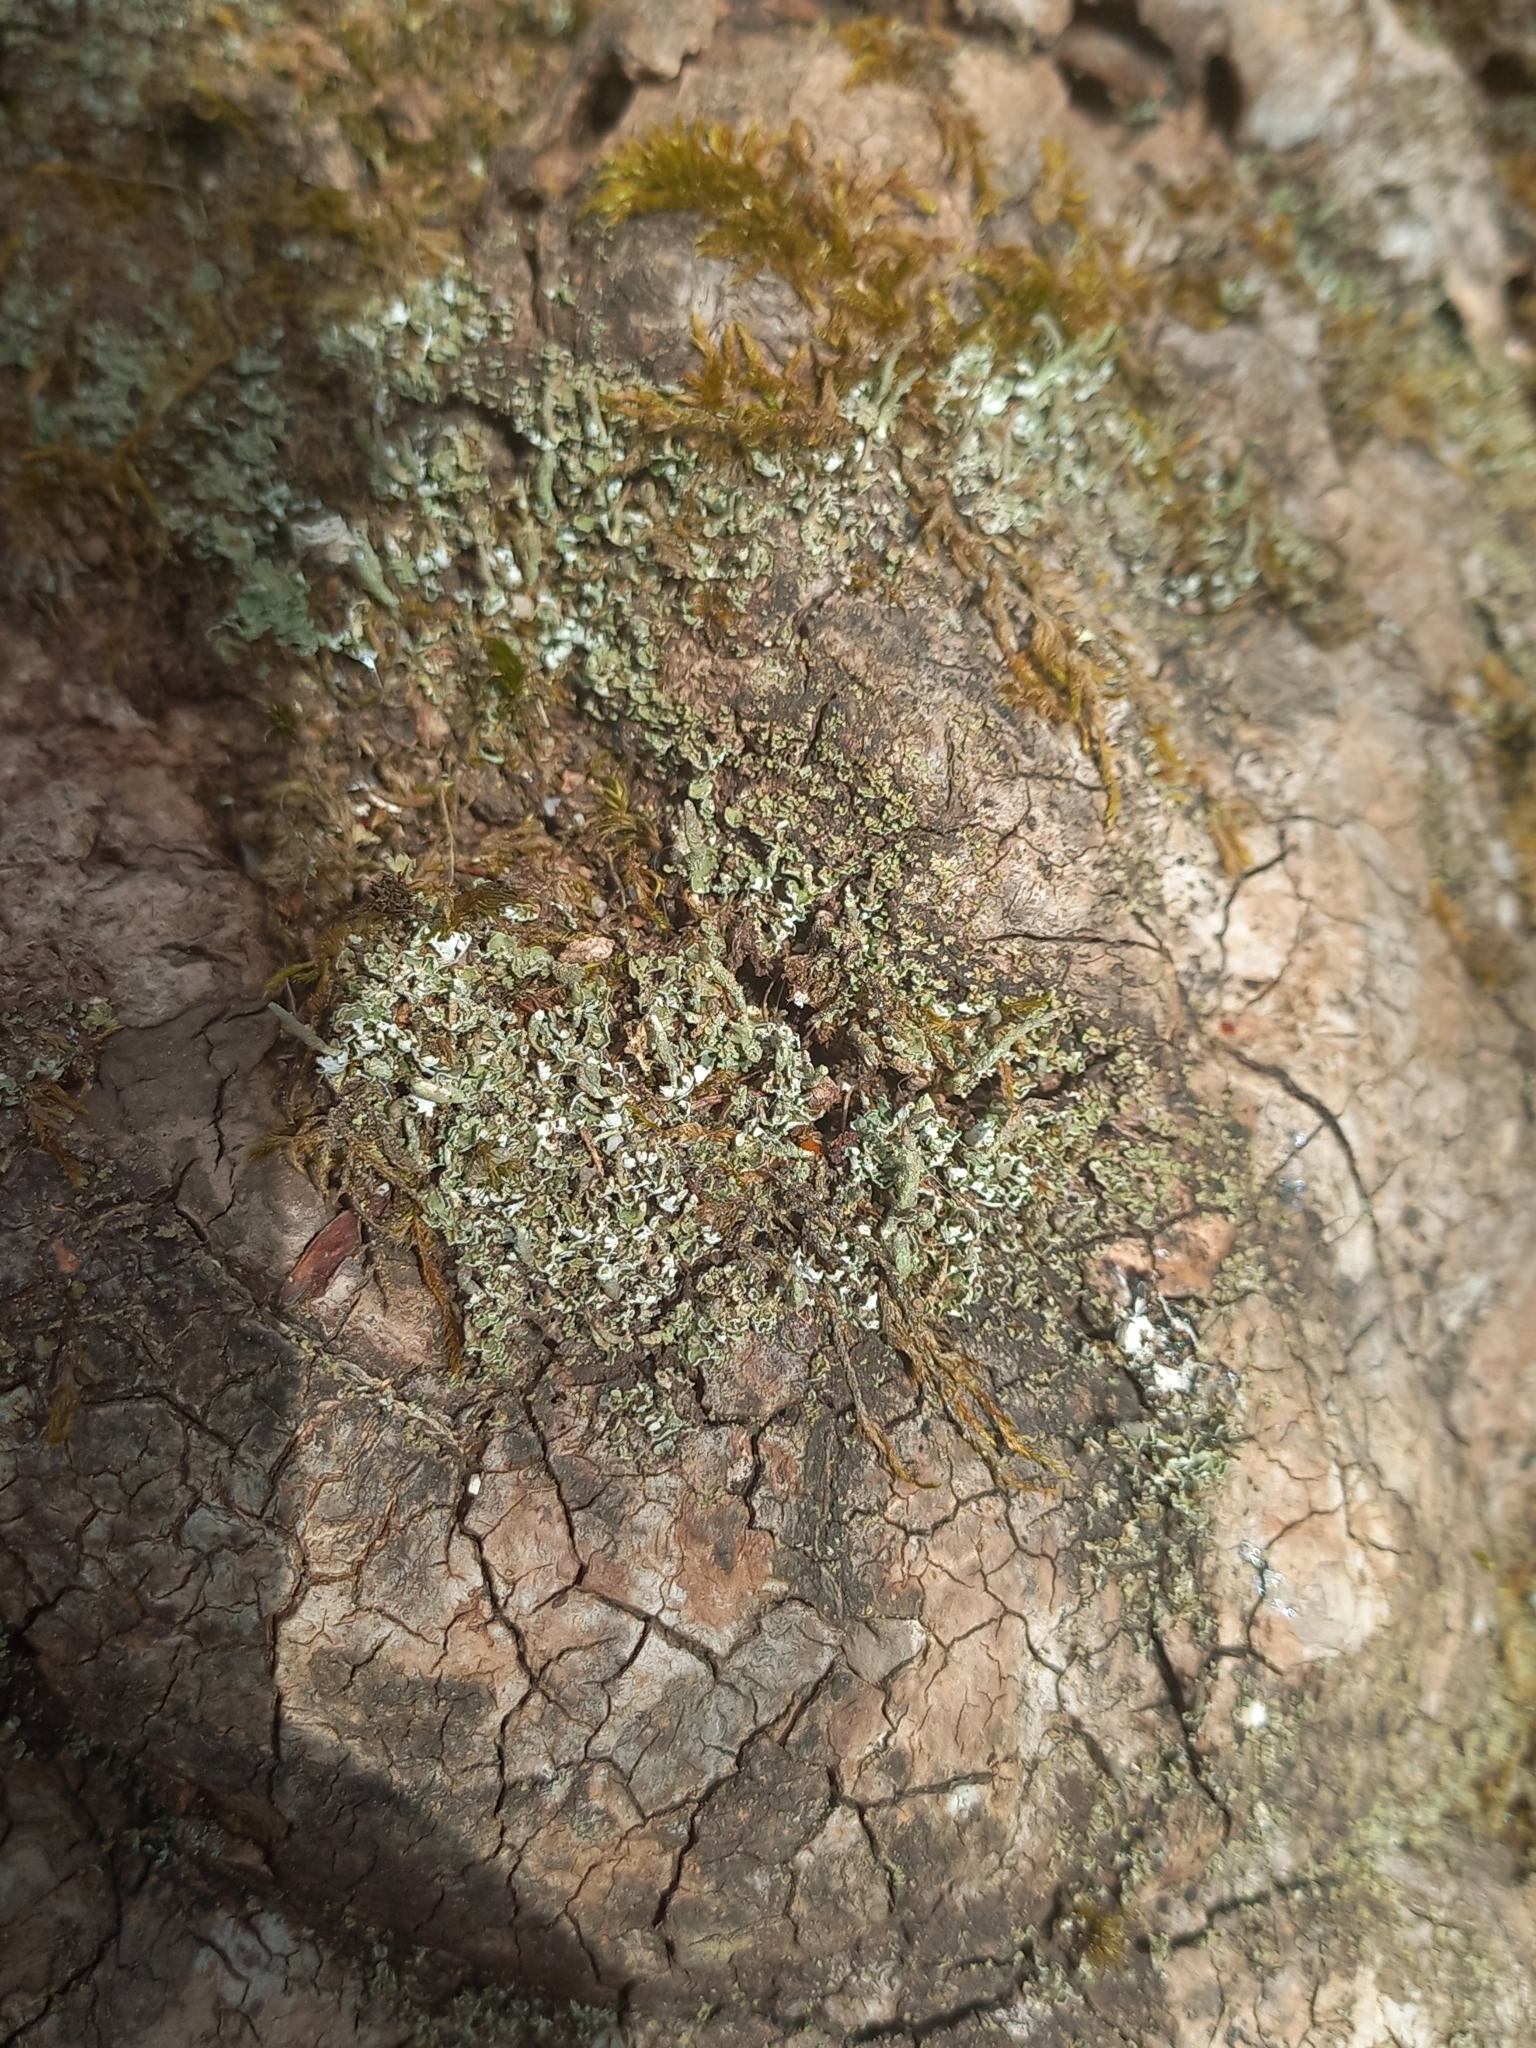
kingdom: Fungi
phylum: Ascomycota
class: Lecanoromycetes
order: Lecanorales
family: Cladoniaceae
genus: Cladonia
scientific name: Cladonia coniocraea
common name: Common powderhorn
